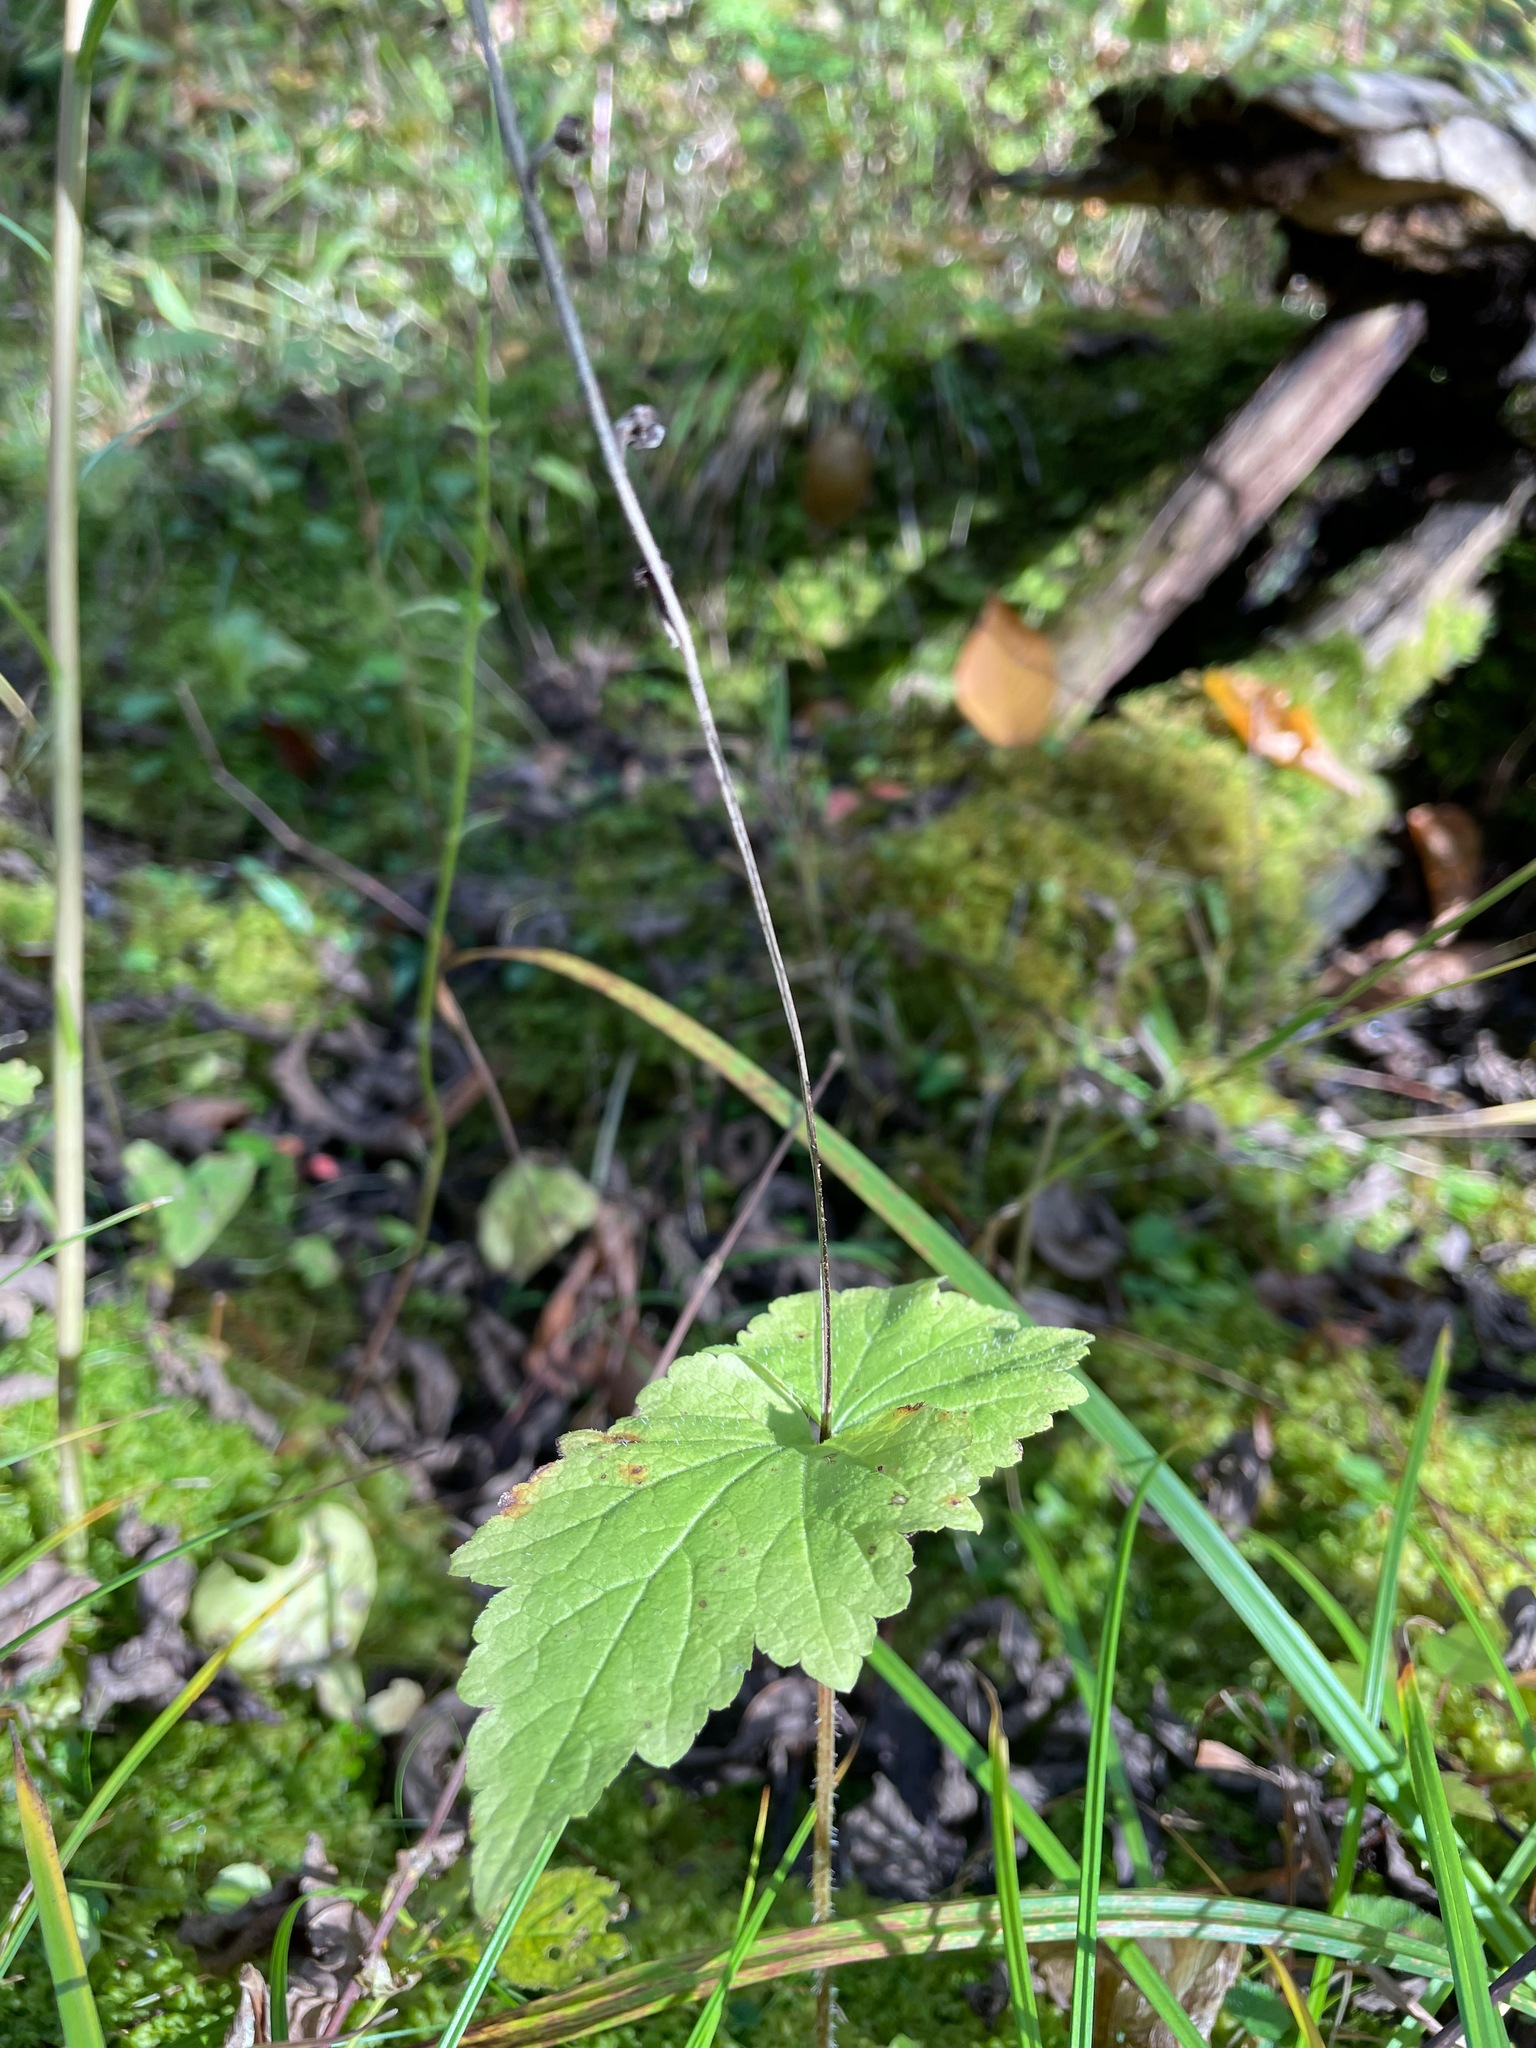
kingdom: Plantae
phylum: Tracheophyta
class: Magnoliopsida
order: Saxifragales
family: Saxifragaceae
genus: Mitella
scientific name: Mitella diphylla
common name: Coolwort
